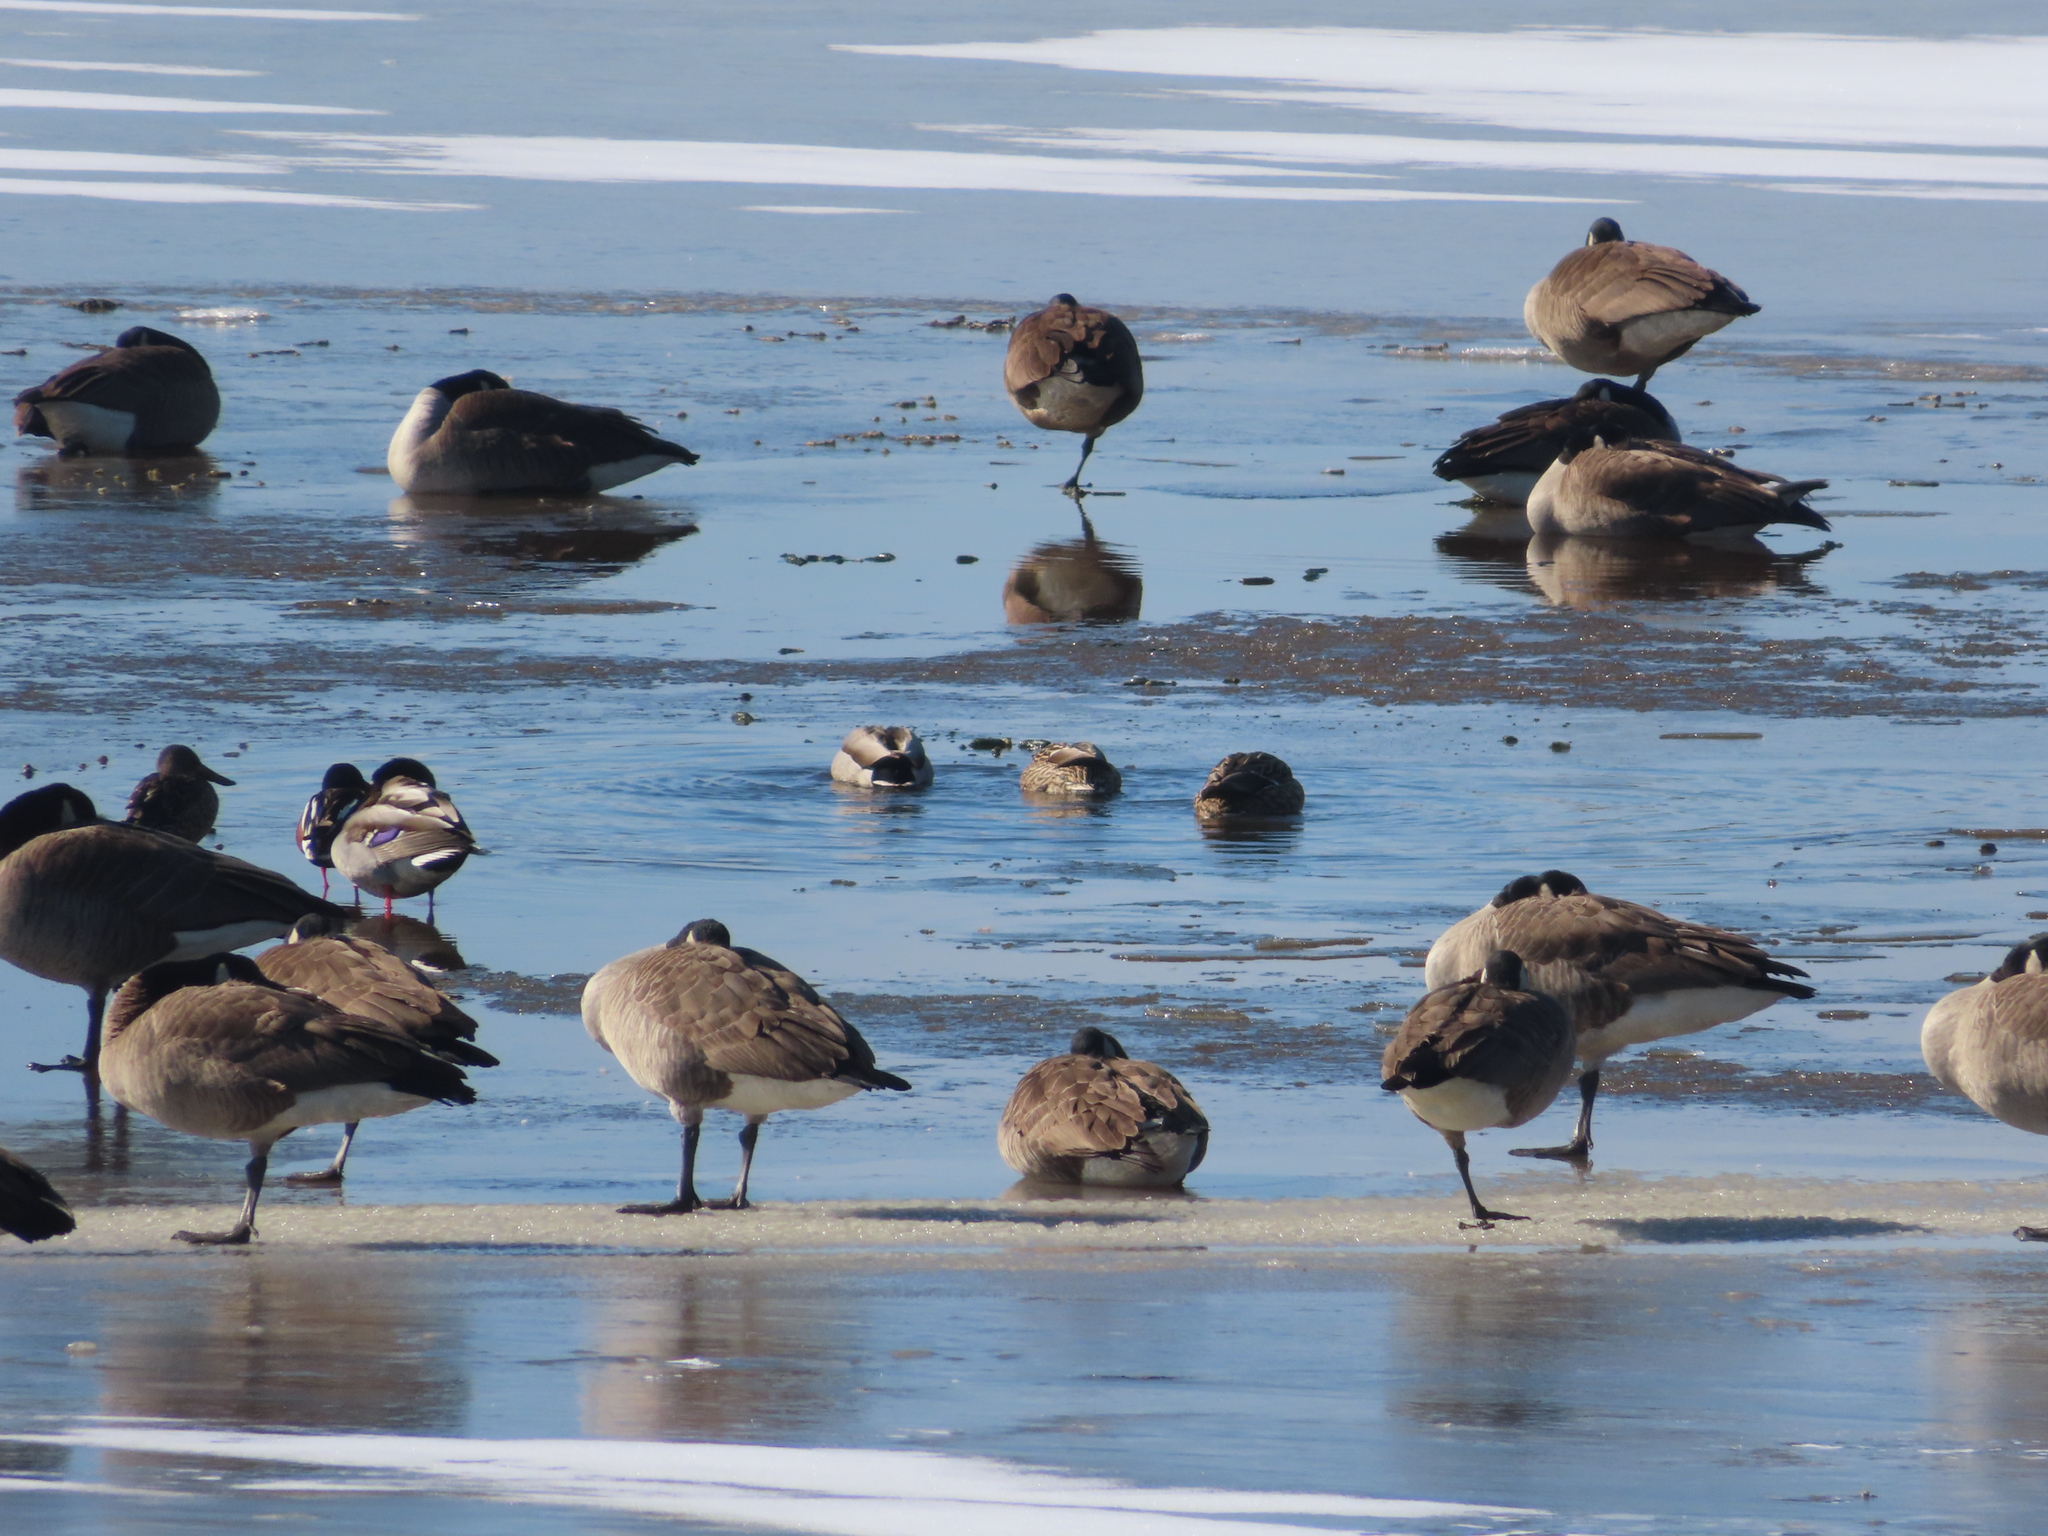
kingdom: Animalia
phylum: Chordata
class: Aves
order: Anseriformes
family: Anatidae
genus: Branta
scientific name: Branta canadensis
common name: Canada goose
